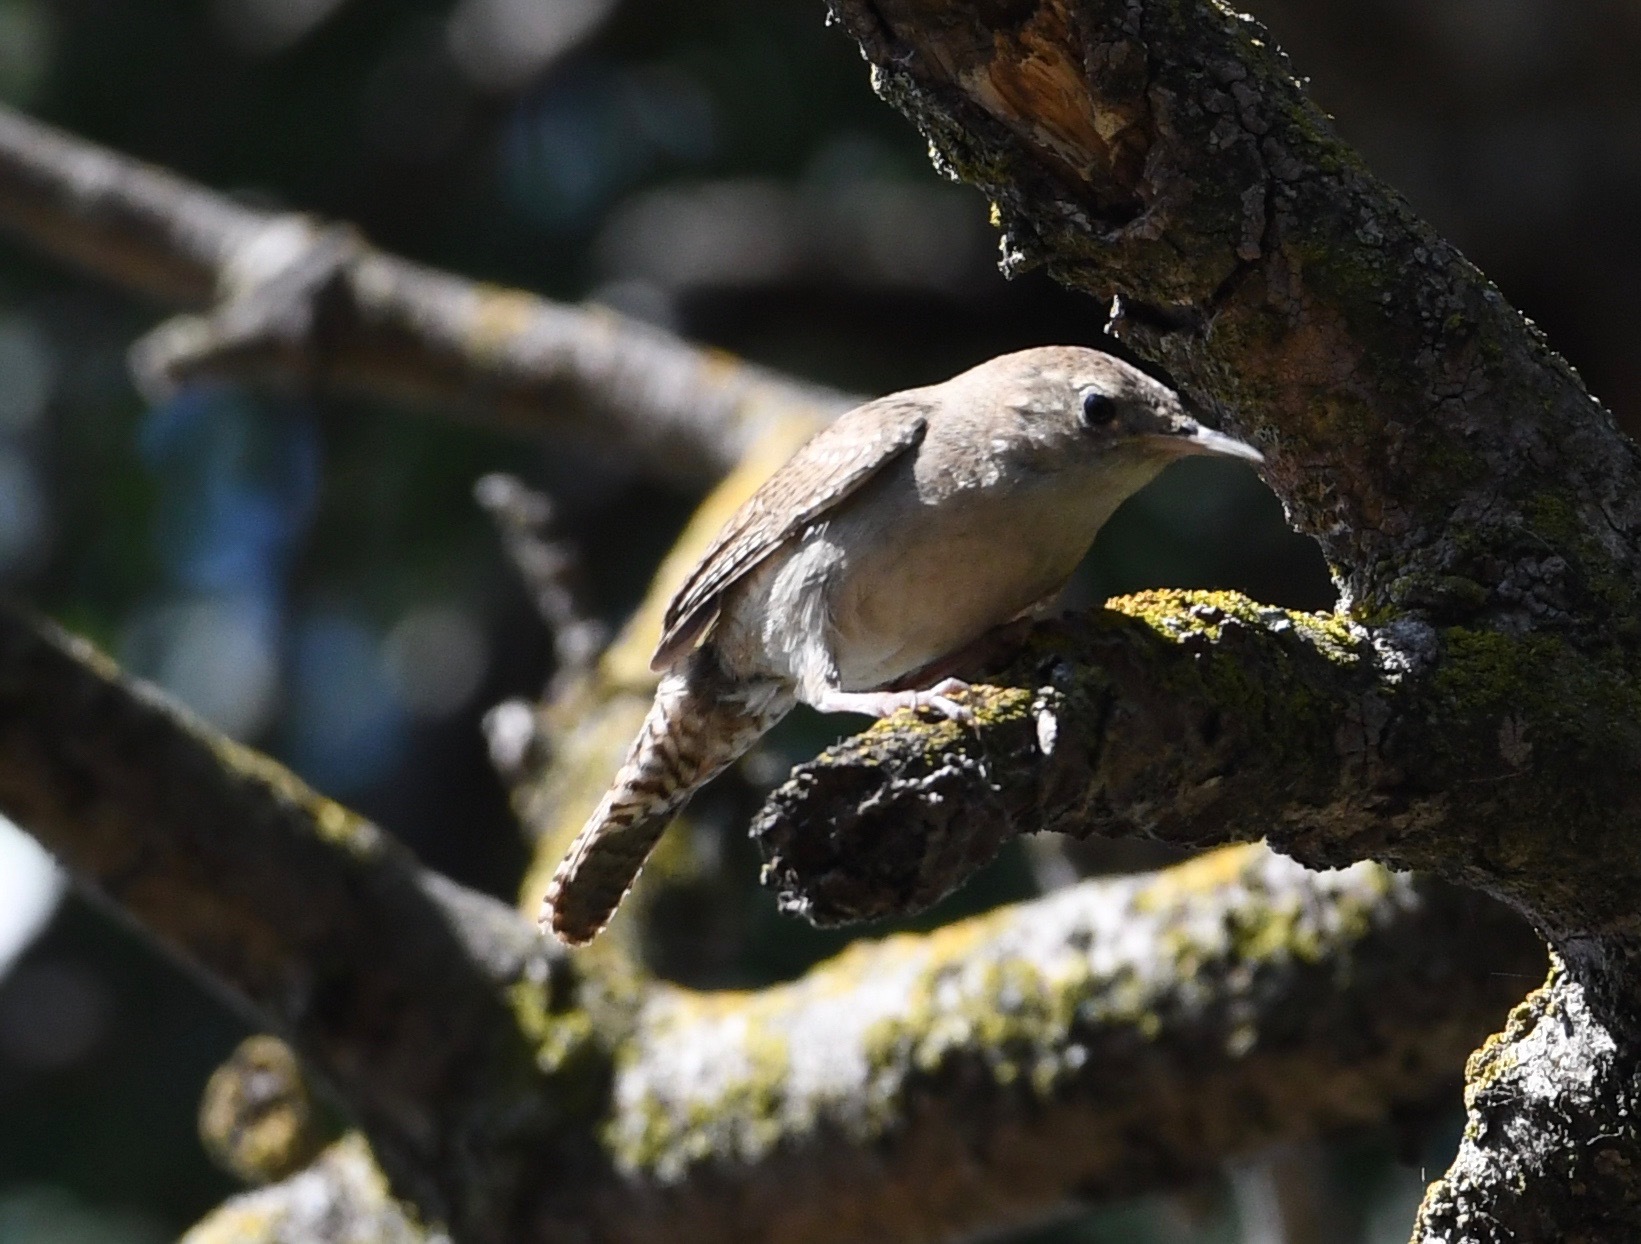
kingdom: Animalia
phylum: Chordata
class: Aves
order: Passeriformes
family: Troglodytidae
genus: Troglodytes
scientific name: Troglodytes aedon
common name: House wren
